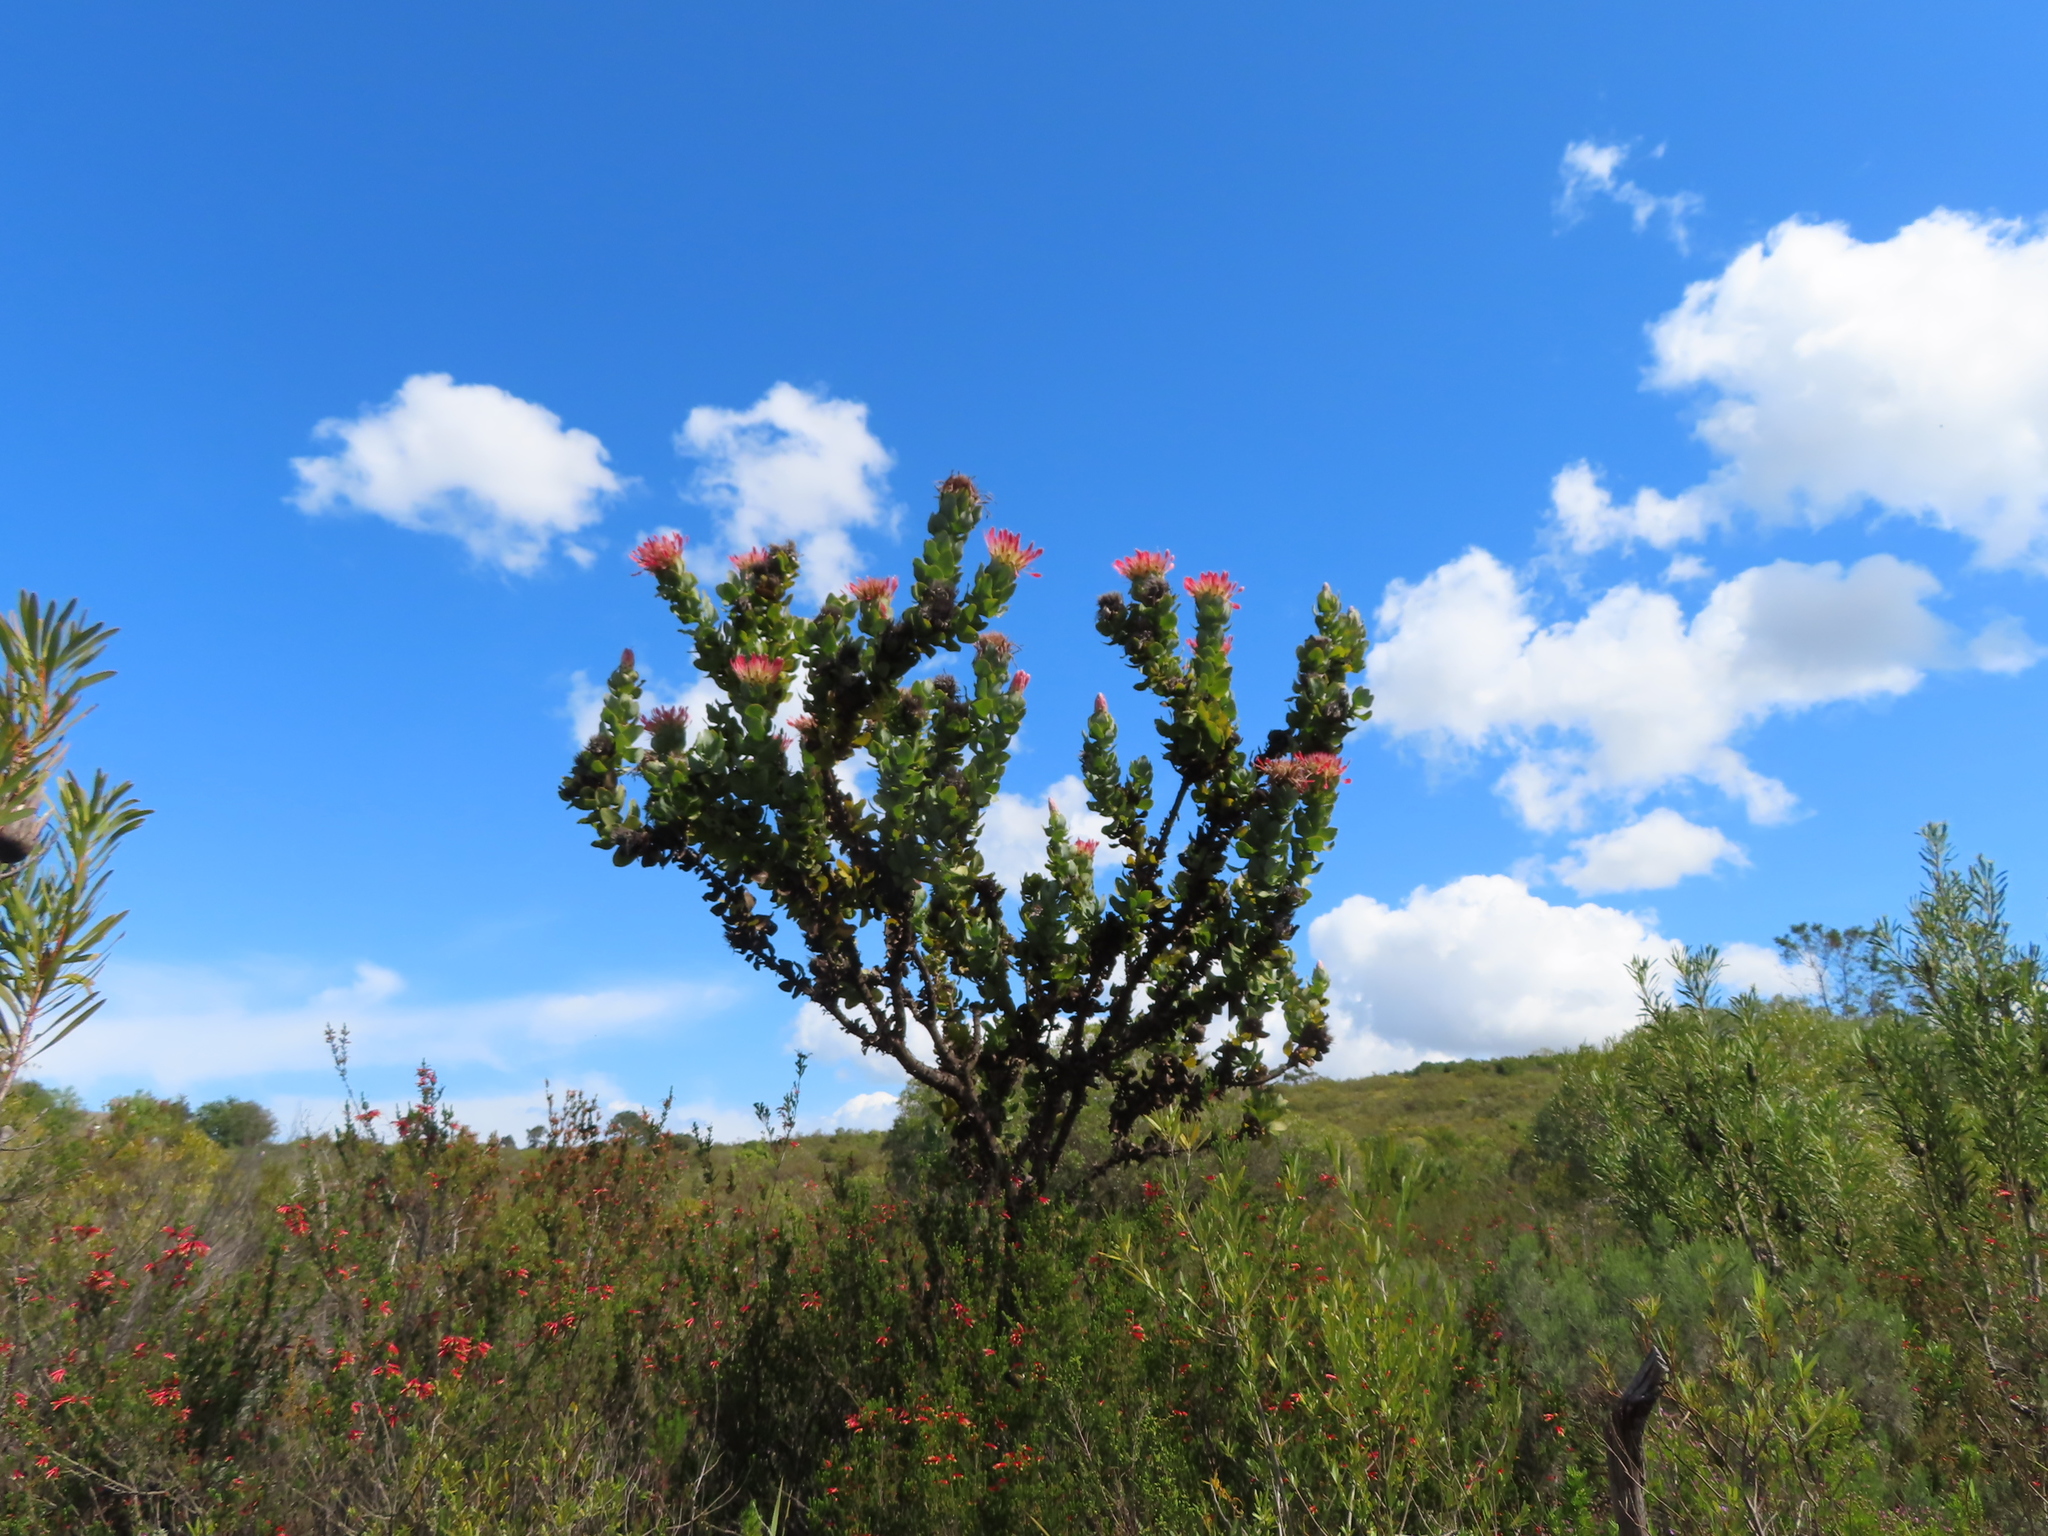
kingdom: Plantae
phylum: Tracheophyta
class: Magnoliopsida
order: Proteales
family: Proteaceae
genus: Protea
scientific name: Protea eximia
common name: Broad-leaved sugarbush
